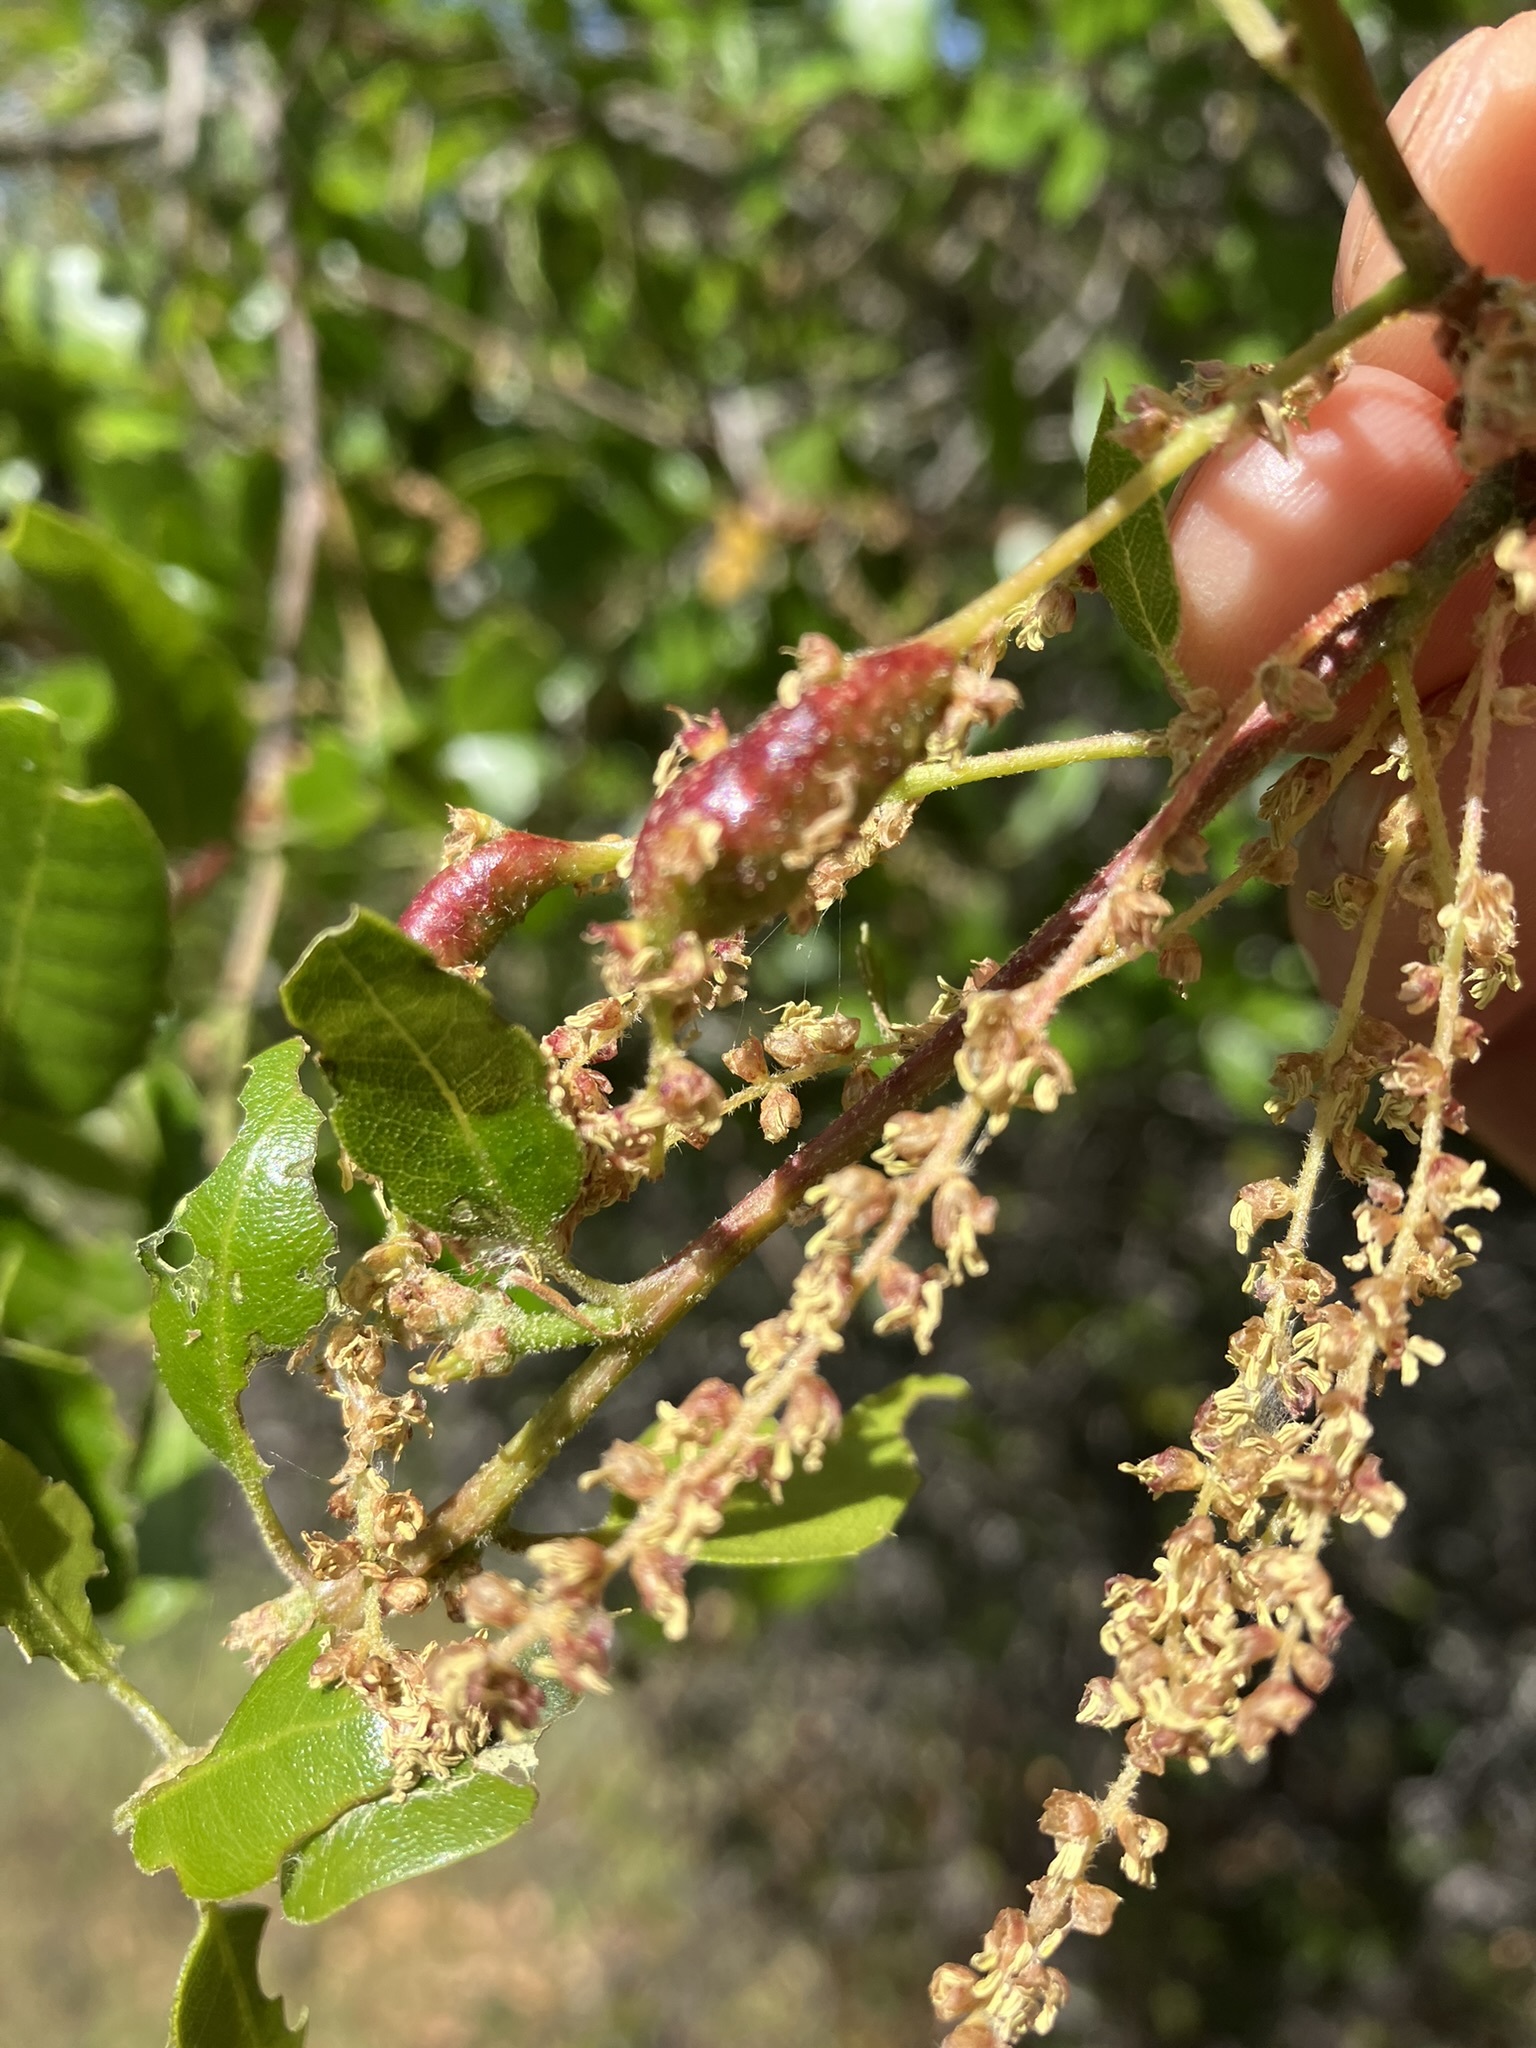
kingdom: Animalia
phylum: Arthropoda
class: Insecta
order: Hymenoptera
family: Cynipidae
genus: Callirhytis
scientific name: Callirhytis
